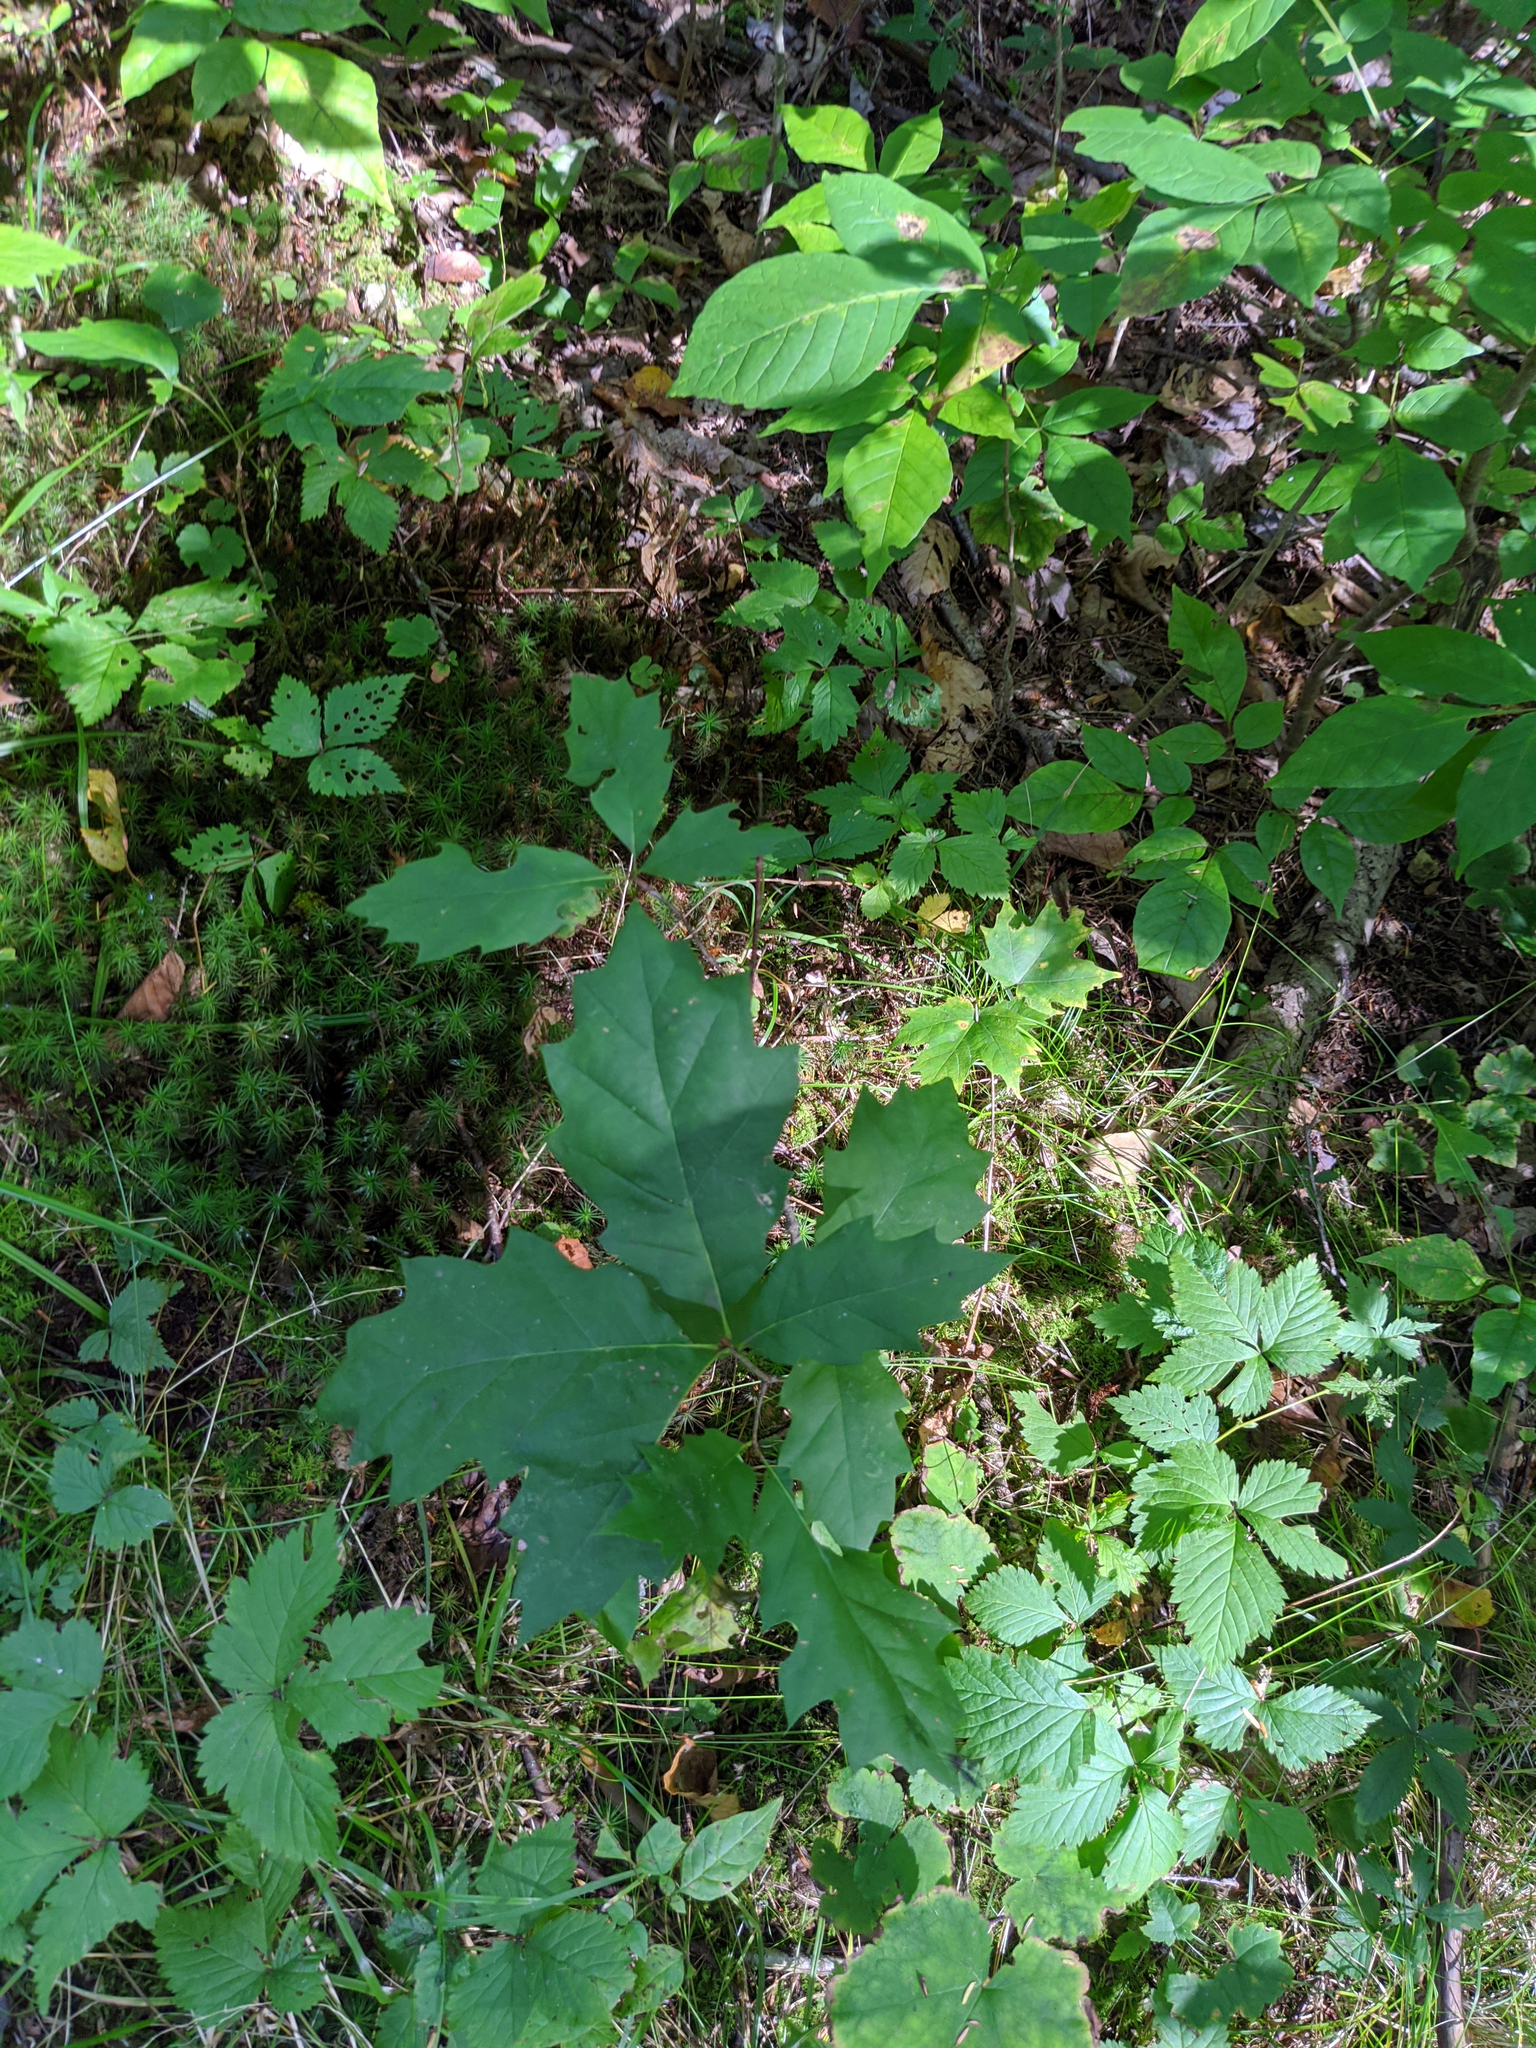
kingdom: Plantae
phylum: Tracheophyta
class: Magnoliopsida
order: Fagales
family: Fagaceae
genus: Quercus
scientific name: Quercus rubra
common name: Red oak
